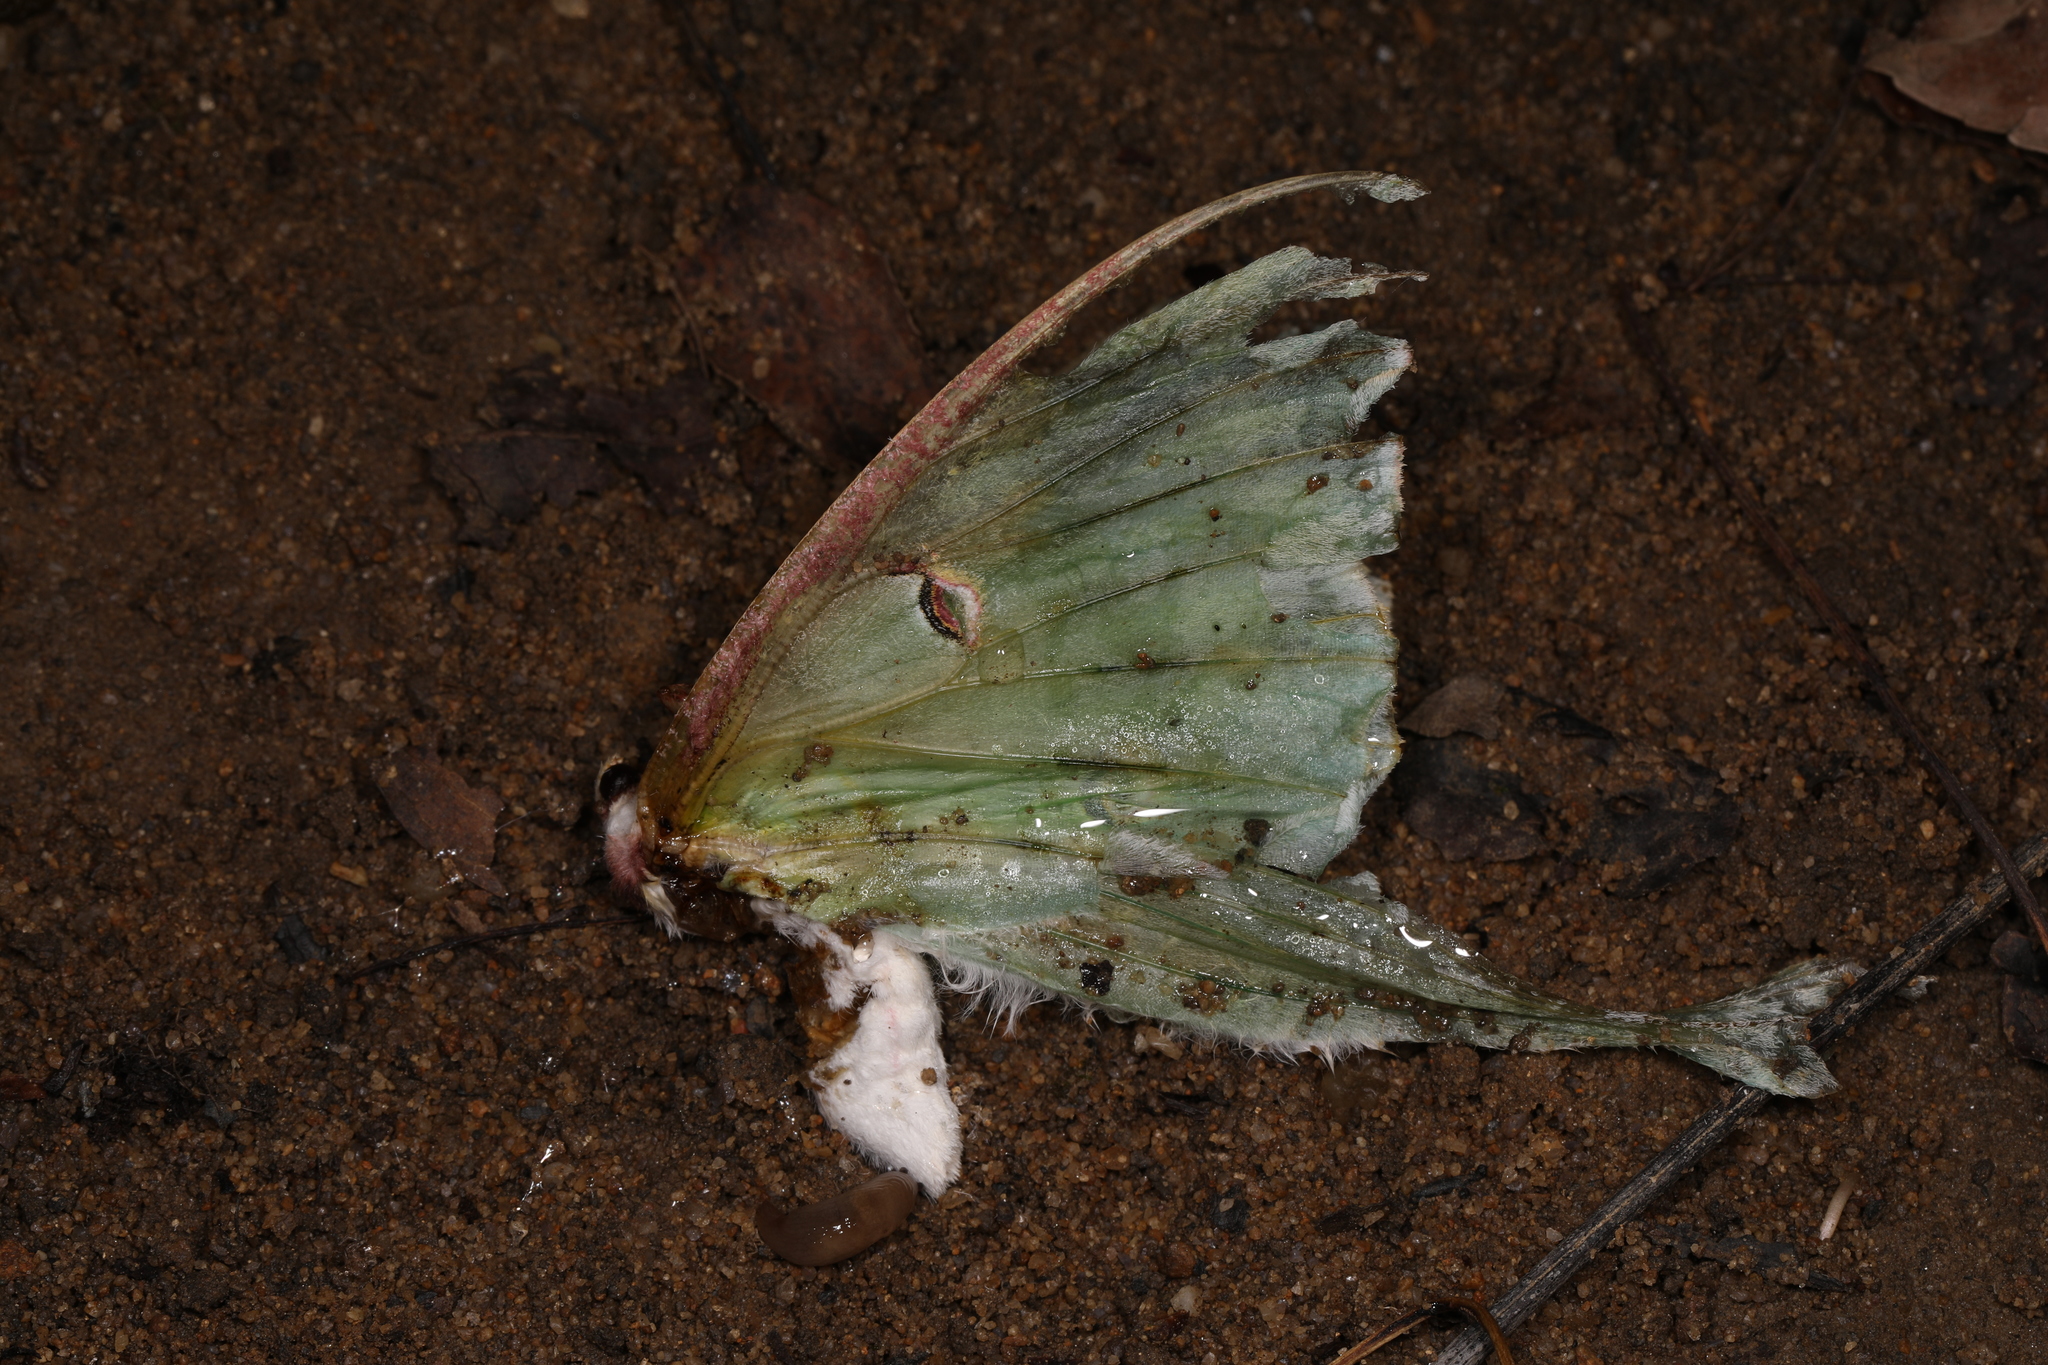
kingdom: Animalia
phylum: Arthropoda
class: Insecta
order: Lepidoptera
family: Saturniidae
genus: Actias
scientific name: Actias luna
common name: Luna moth
